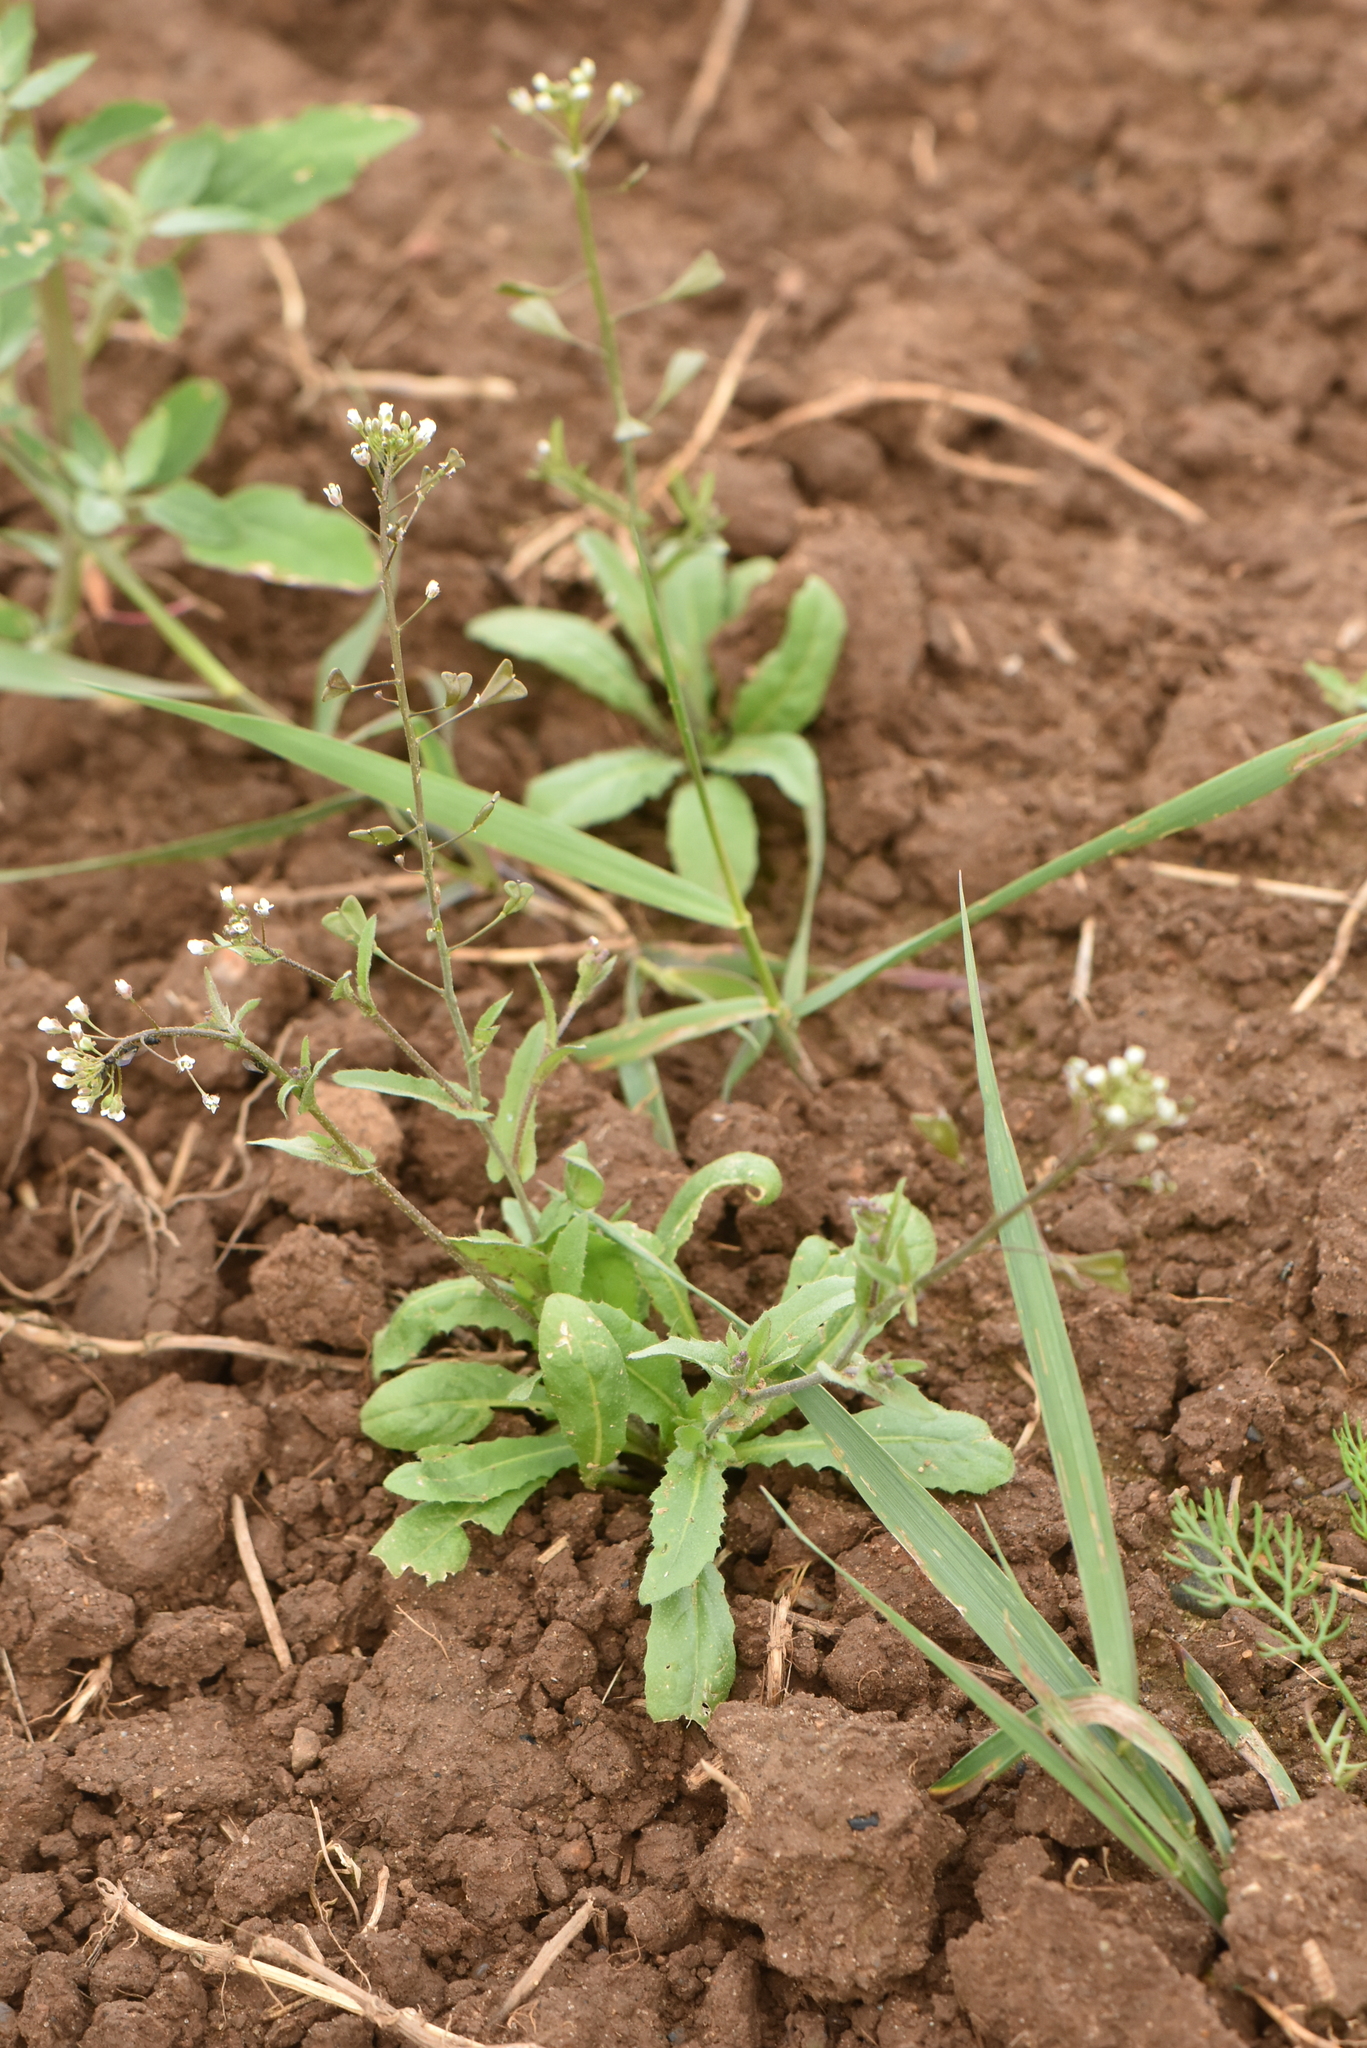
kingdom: Plantae
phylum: Tracheophyta
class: Magnoliopsida
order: Brassicales
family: Brassicaceae
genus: Capsella
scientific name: Capsella bursa-pastoris
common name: Shepherd's purse
